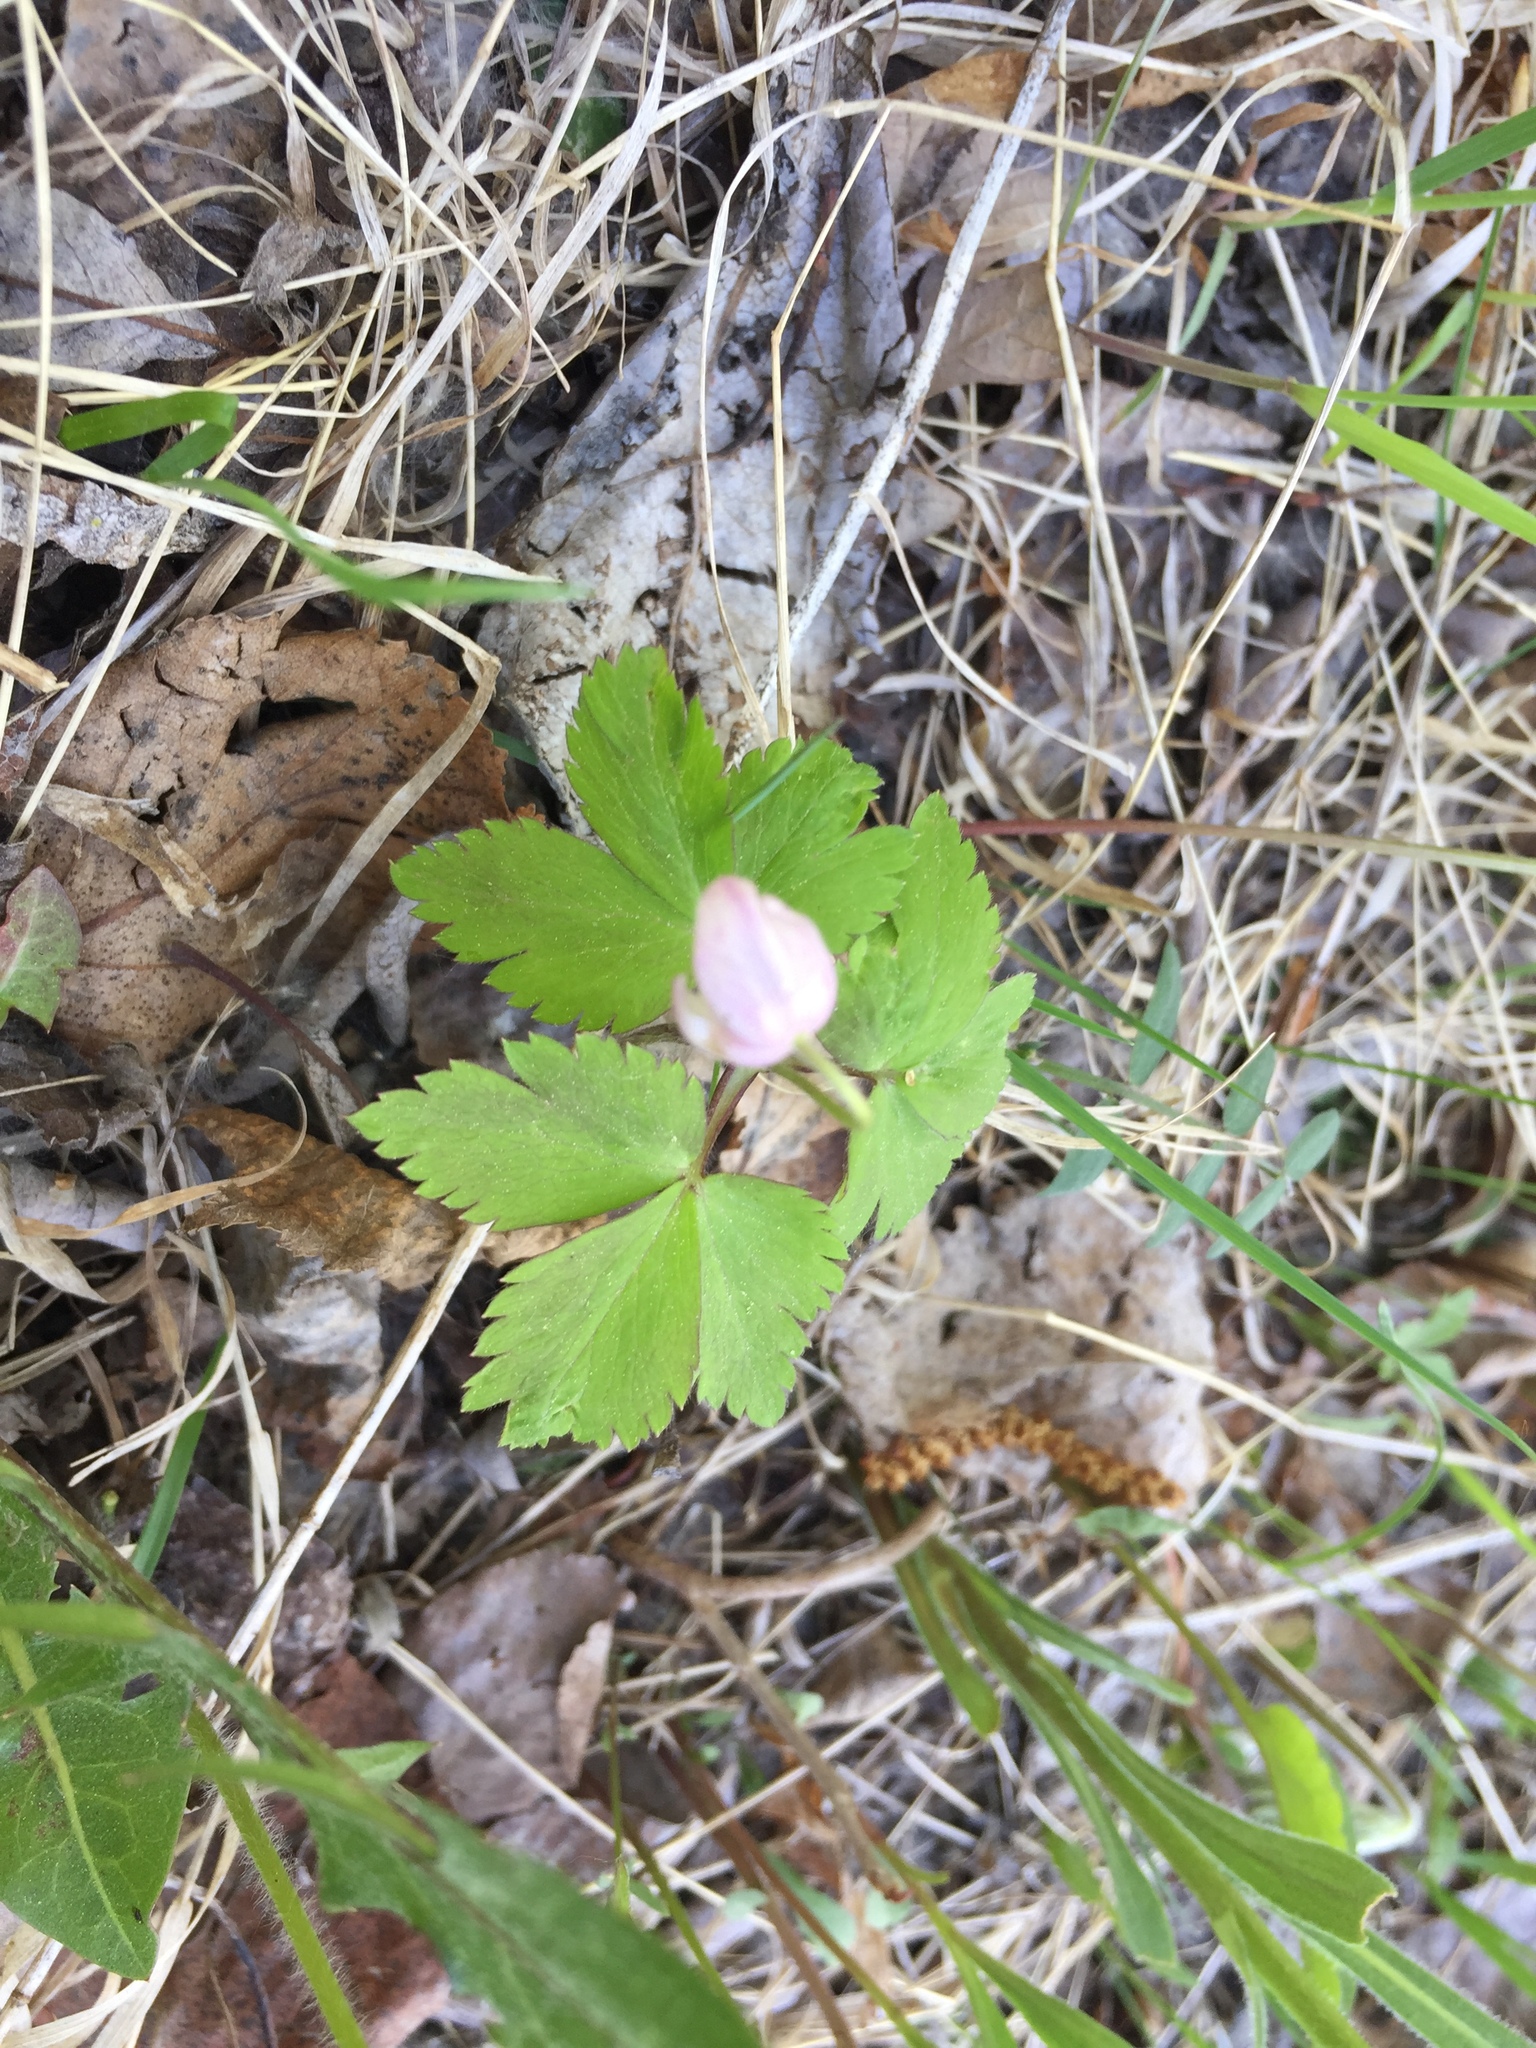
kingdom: Plantae
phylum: Tracheophyta
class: Magnoliopsida
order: Ranunculales
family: Ranunculaceae
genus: Anemone
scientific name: Anemone quinquefolia
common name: Wood anemone
